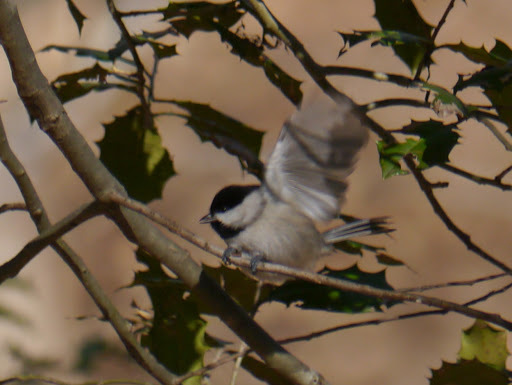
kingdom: Animalia
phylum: Chordata
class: Aves
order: Passeriformes
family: Paridae
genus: Poecile
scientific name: Poecile carolinensis
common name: Carolina chickadee
